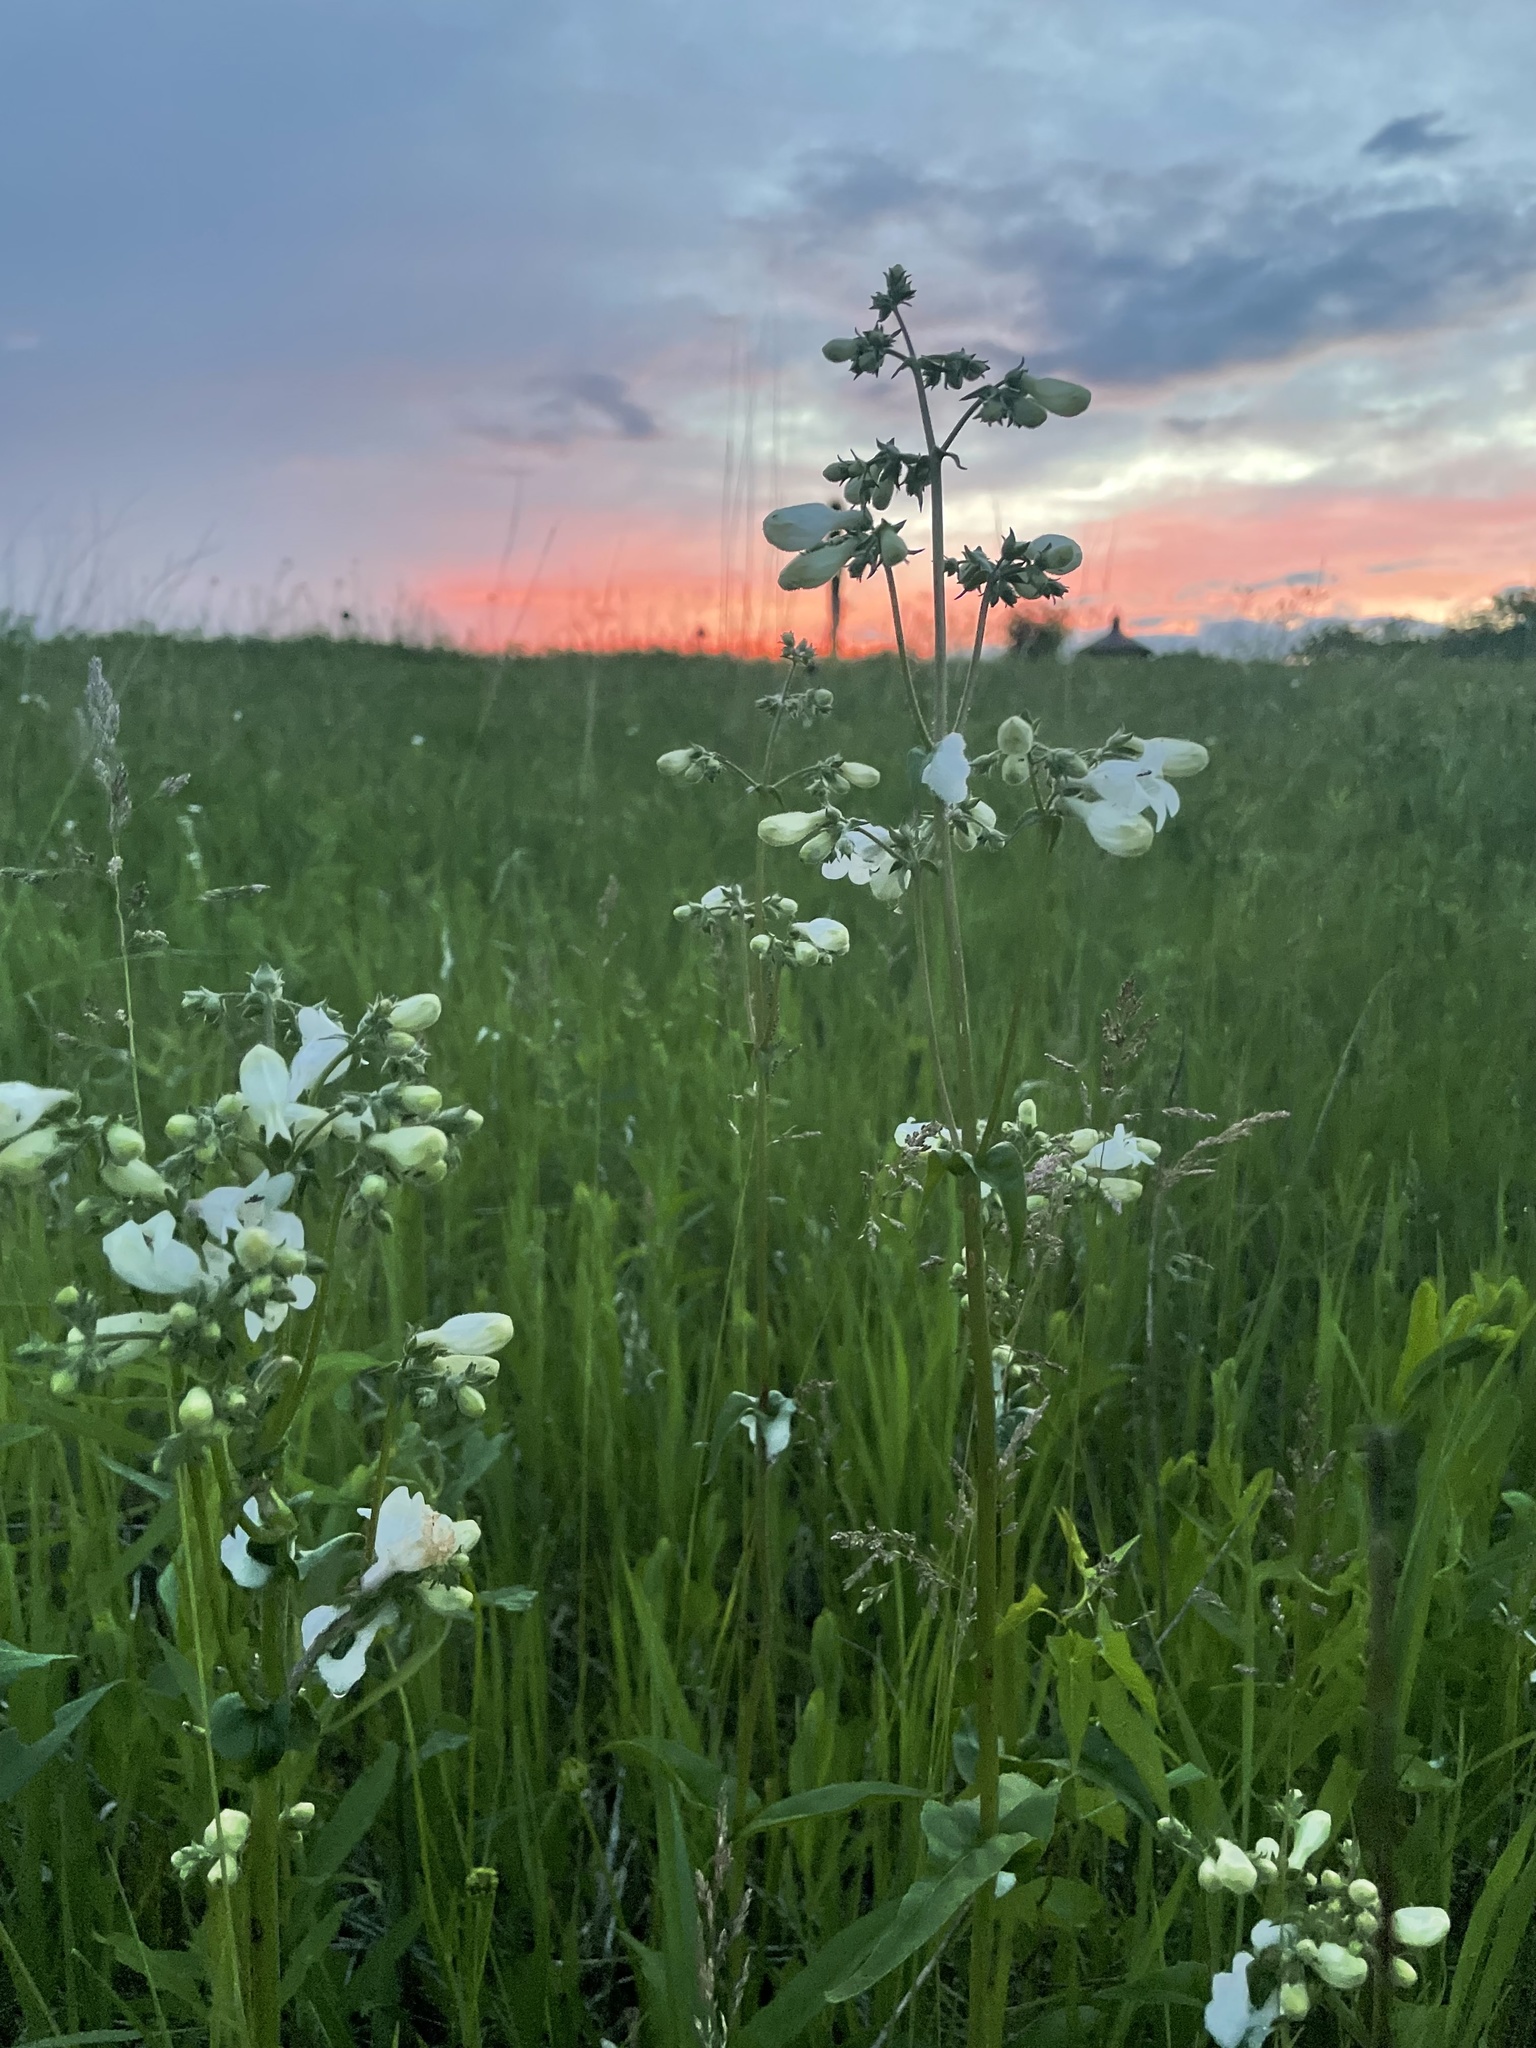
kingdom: Plantae
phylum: Tracheophyta
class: Magnoliopsida
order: Lamiales
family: Plantaginaceae
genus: Penstemon
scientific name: Penstemon digitalis
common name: Foxglove beardtongue
